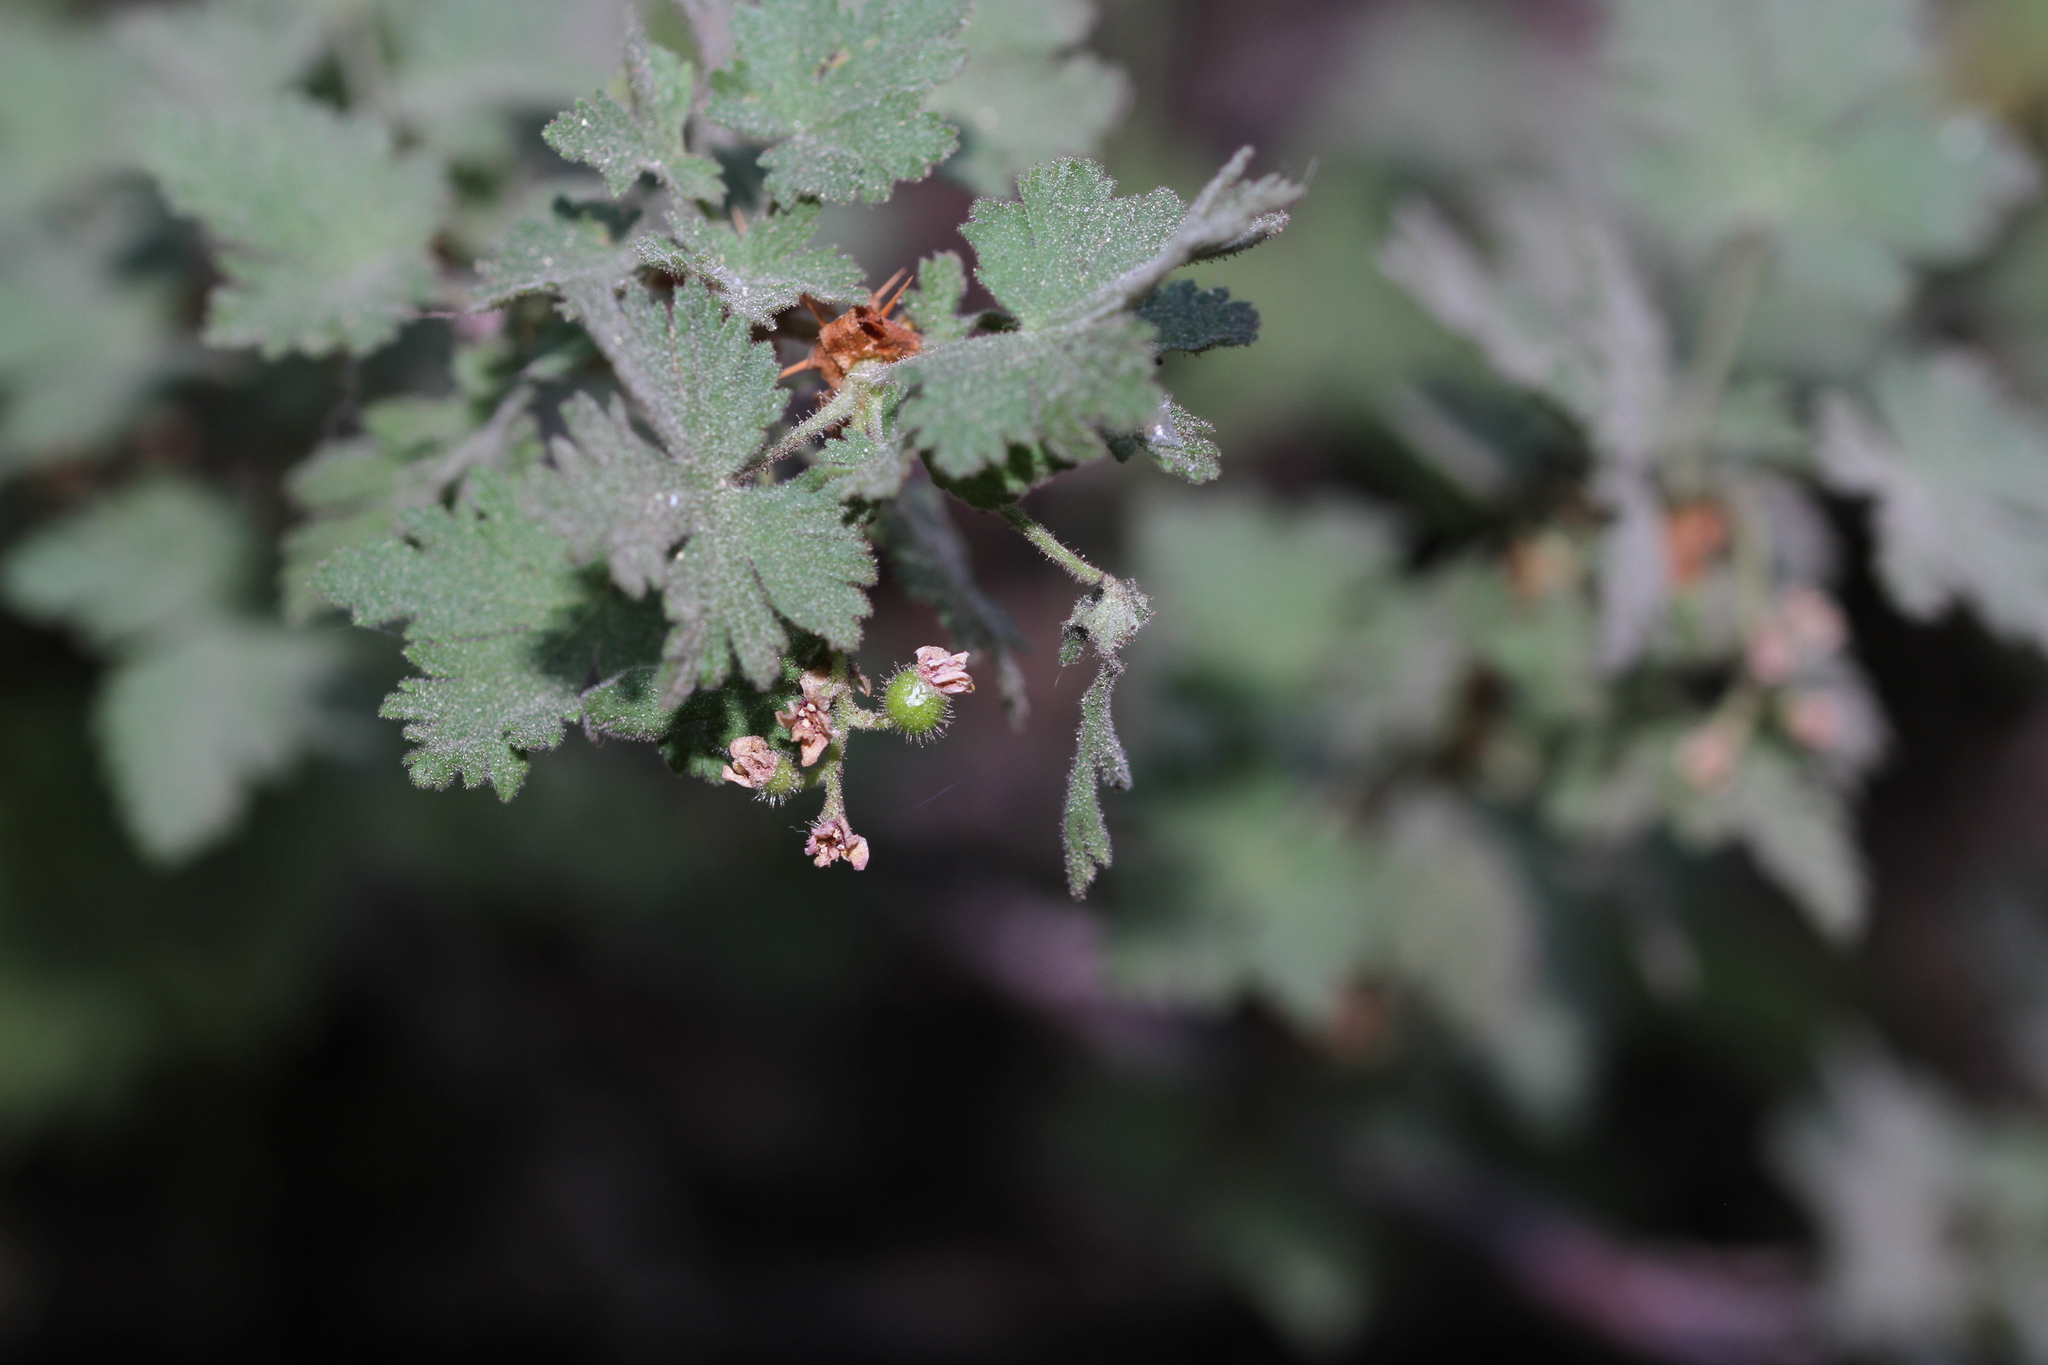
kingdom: Plantae
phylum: Tracheophyta
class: Magnoliopsida
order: Saxifragales
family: Grossulariaceae
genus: Ribes
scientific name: Ribes montigenum
